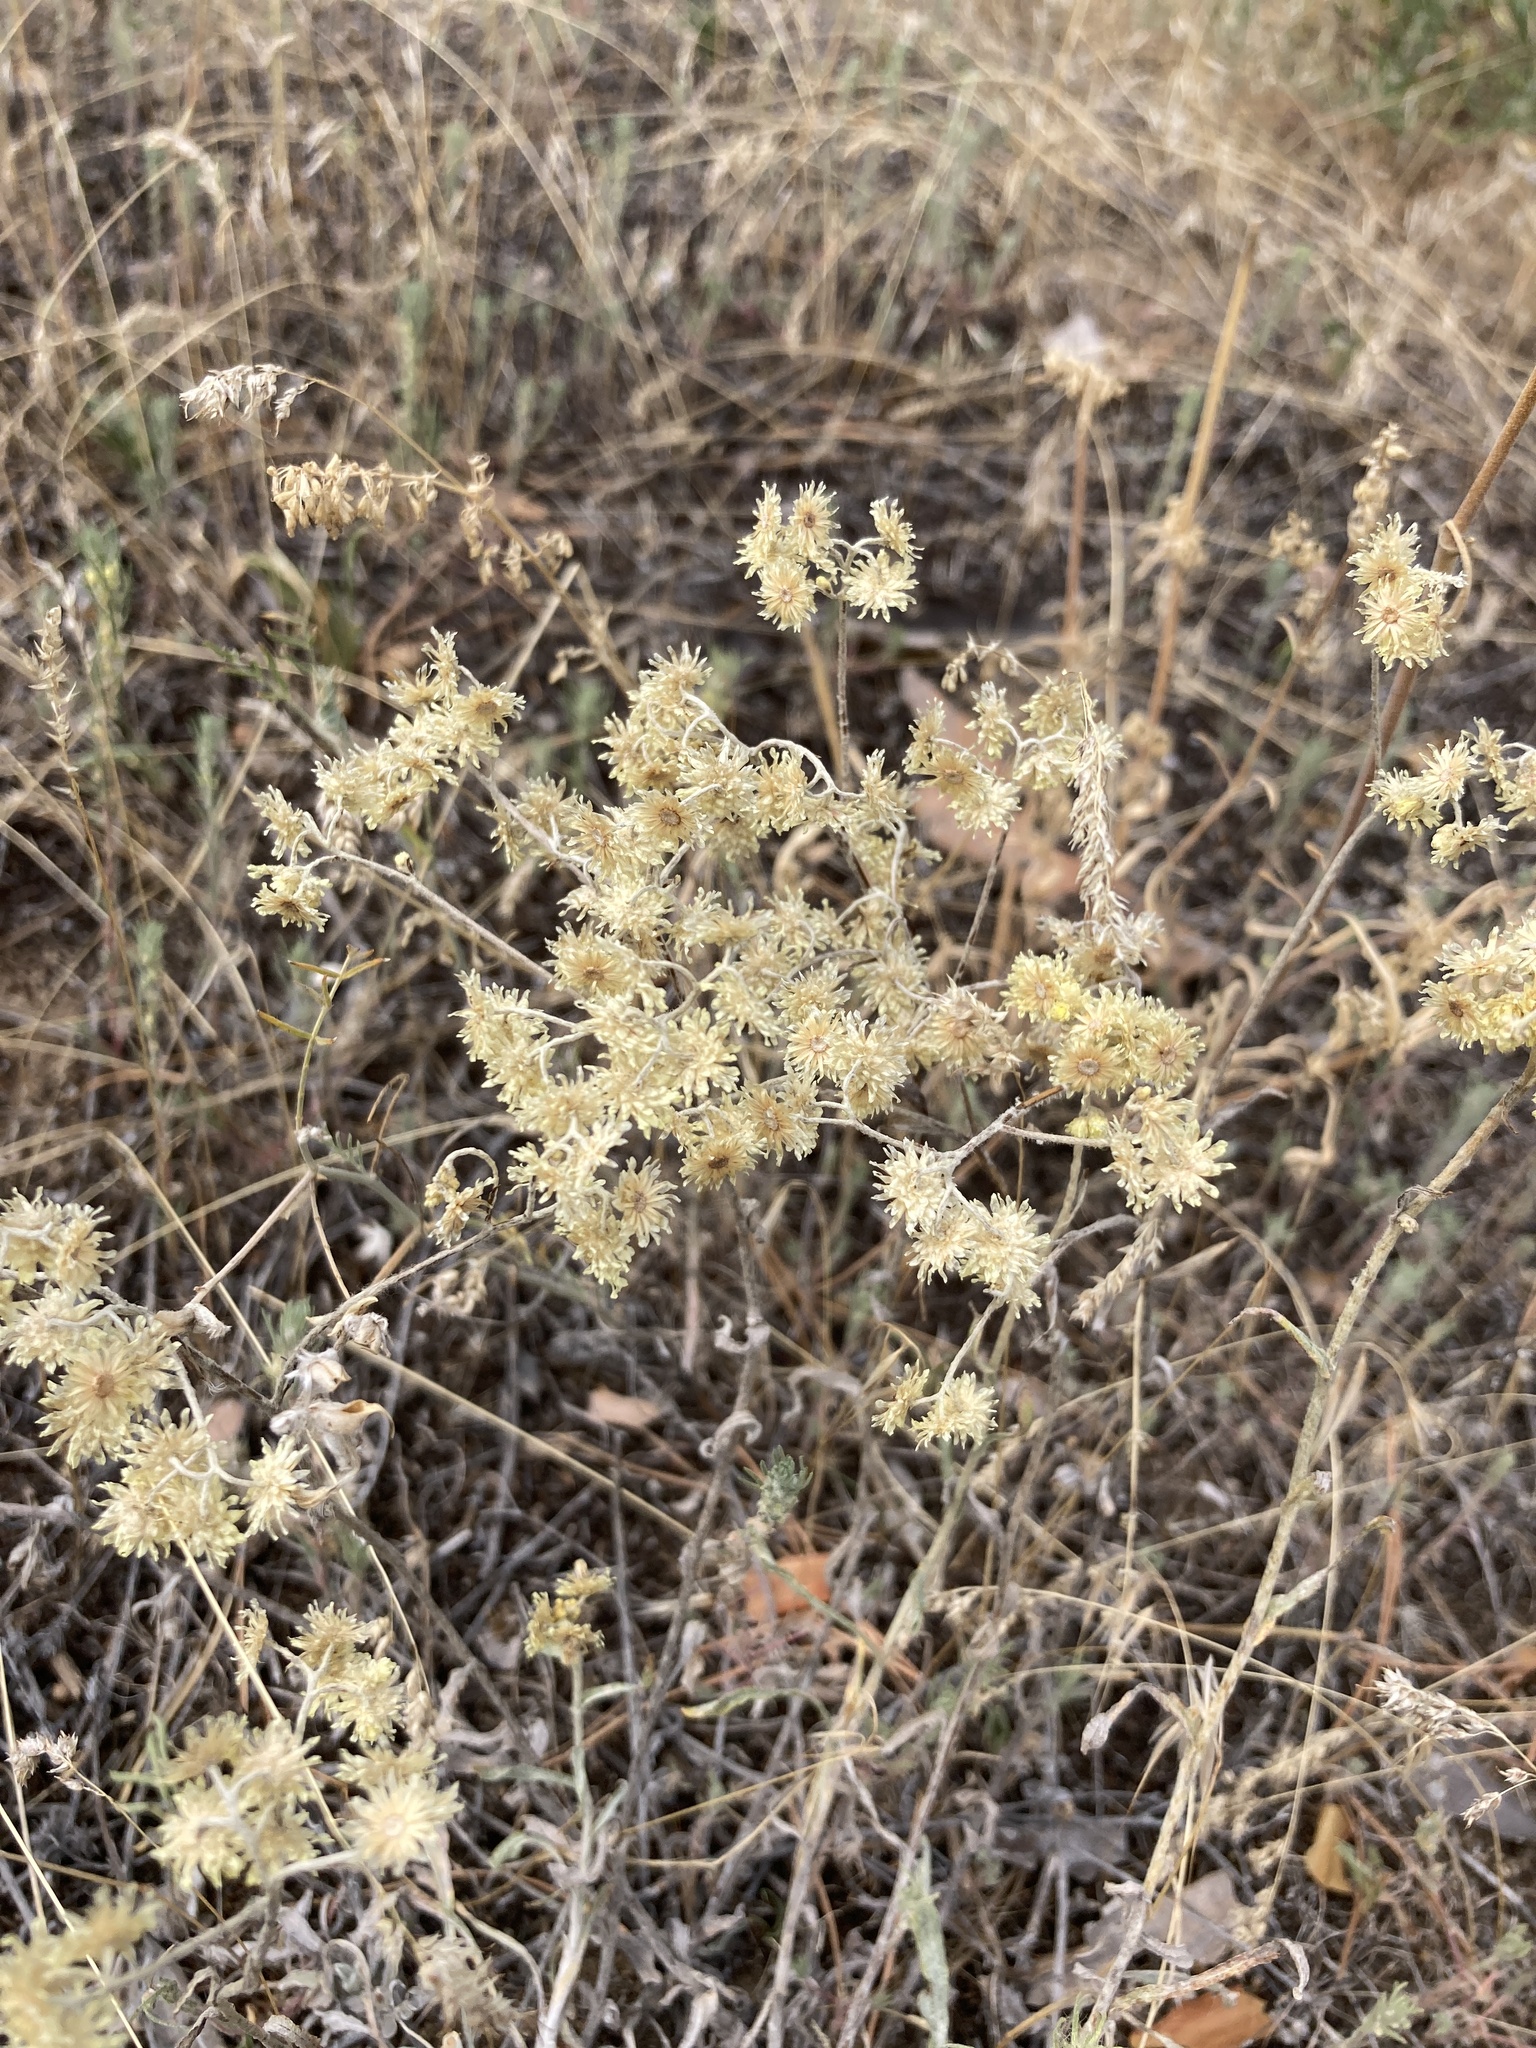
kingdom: Plantae
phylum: Tracheophyta
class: Magnoliopsida
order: Asterales
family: Asteraceae
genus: Helichrysum
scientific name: Helichrysum arenarium
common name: Strawflower
